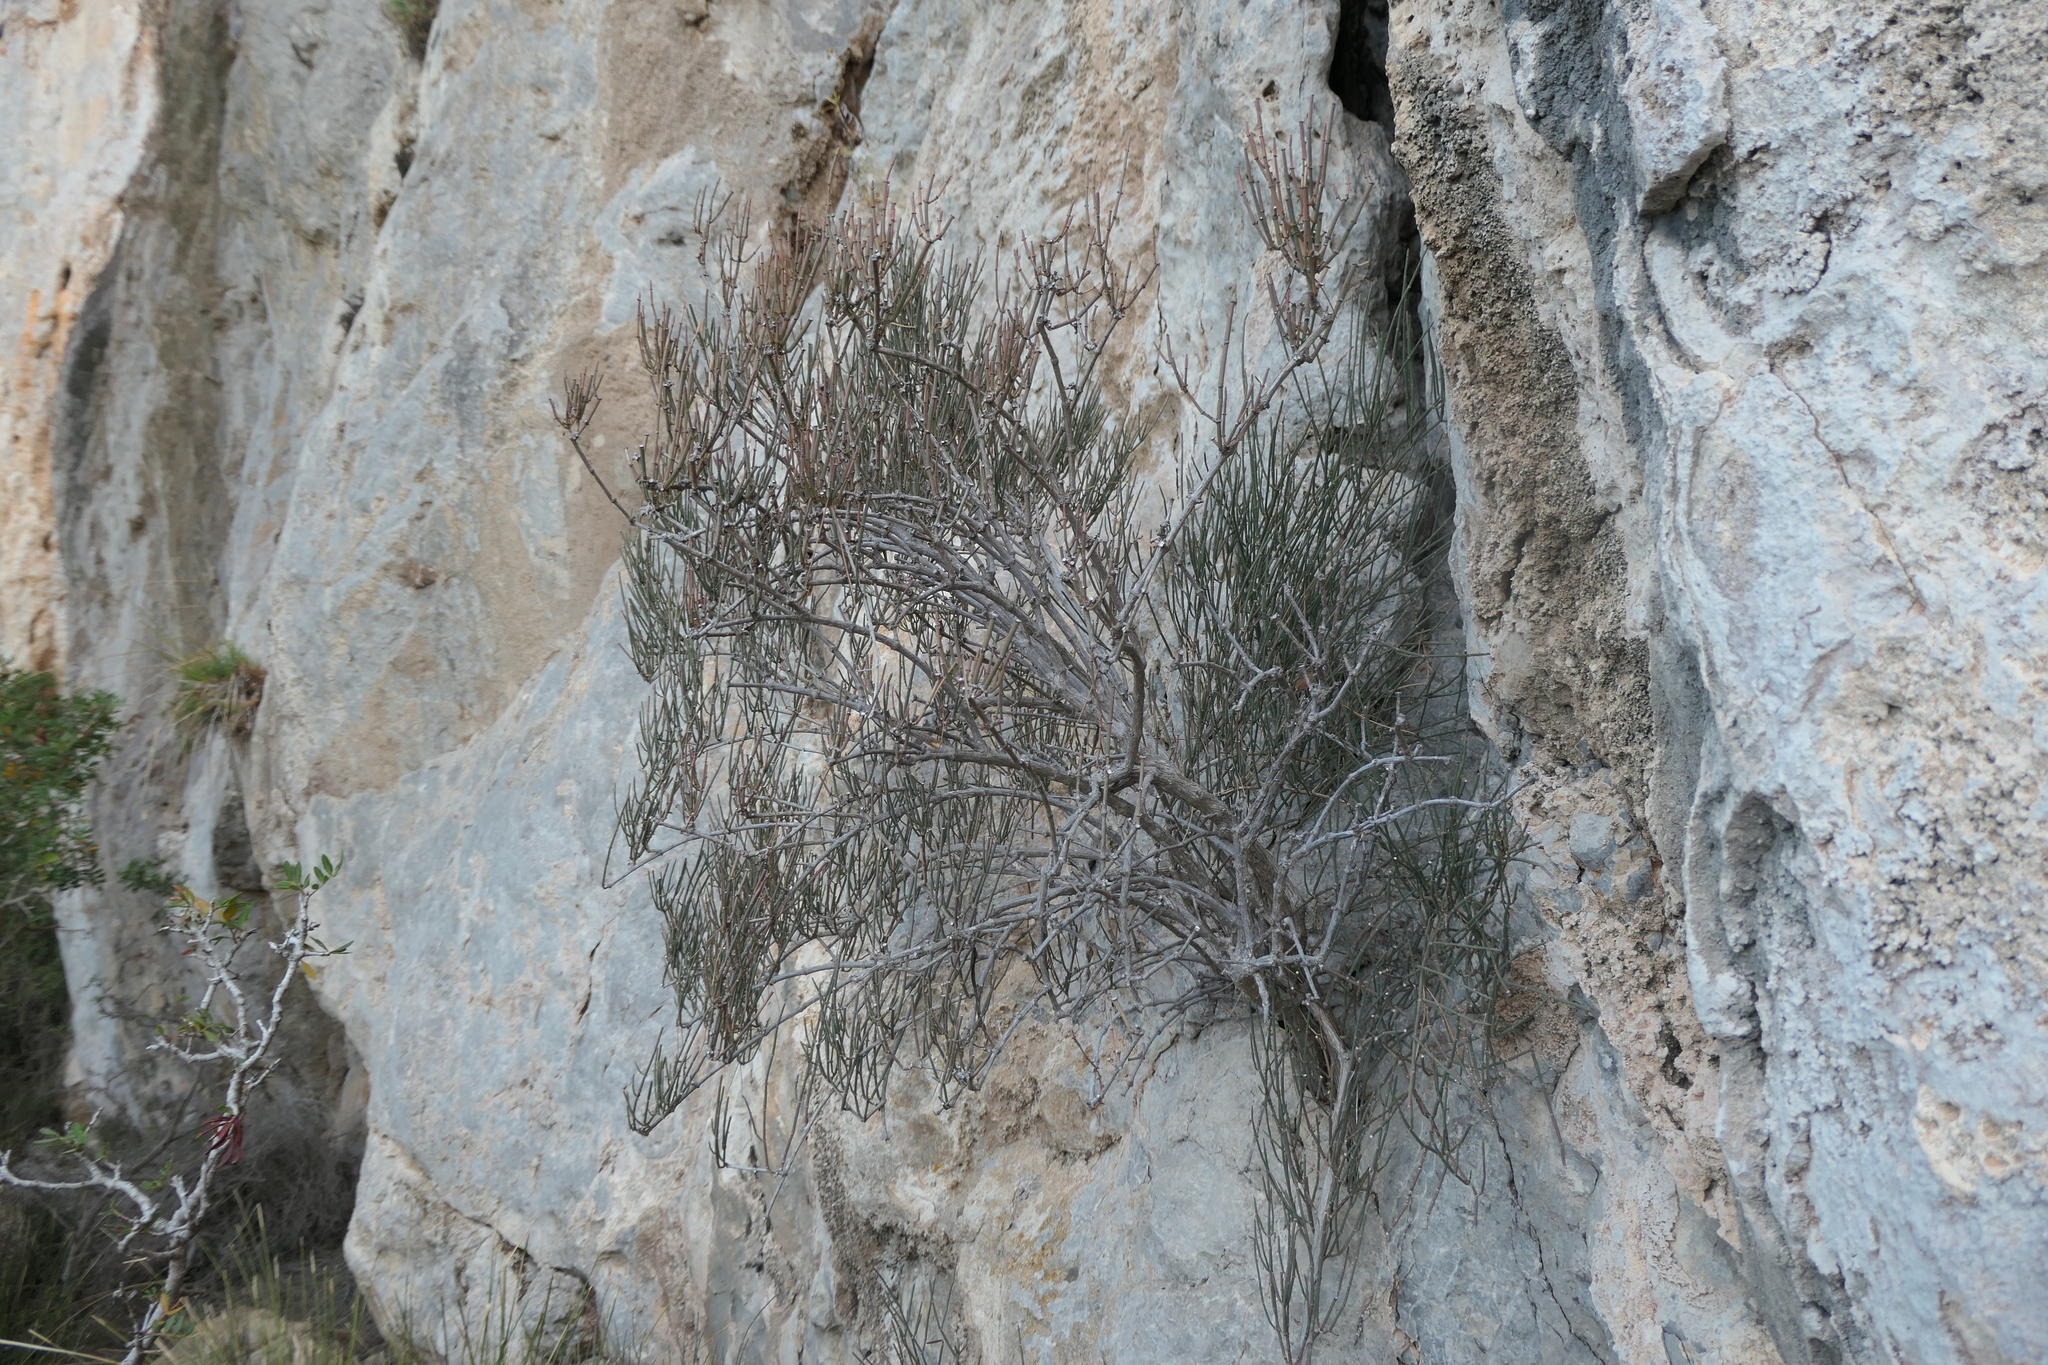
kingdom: Plantae
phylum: Tracheophyta
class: Gnetopsida
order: Ephedrales
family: Ephedraceae
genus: Ephedra
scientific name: Ephedra fragilis
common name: Joint pine
